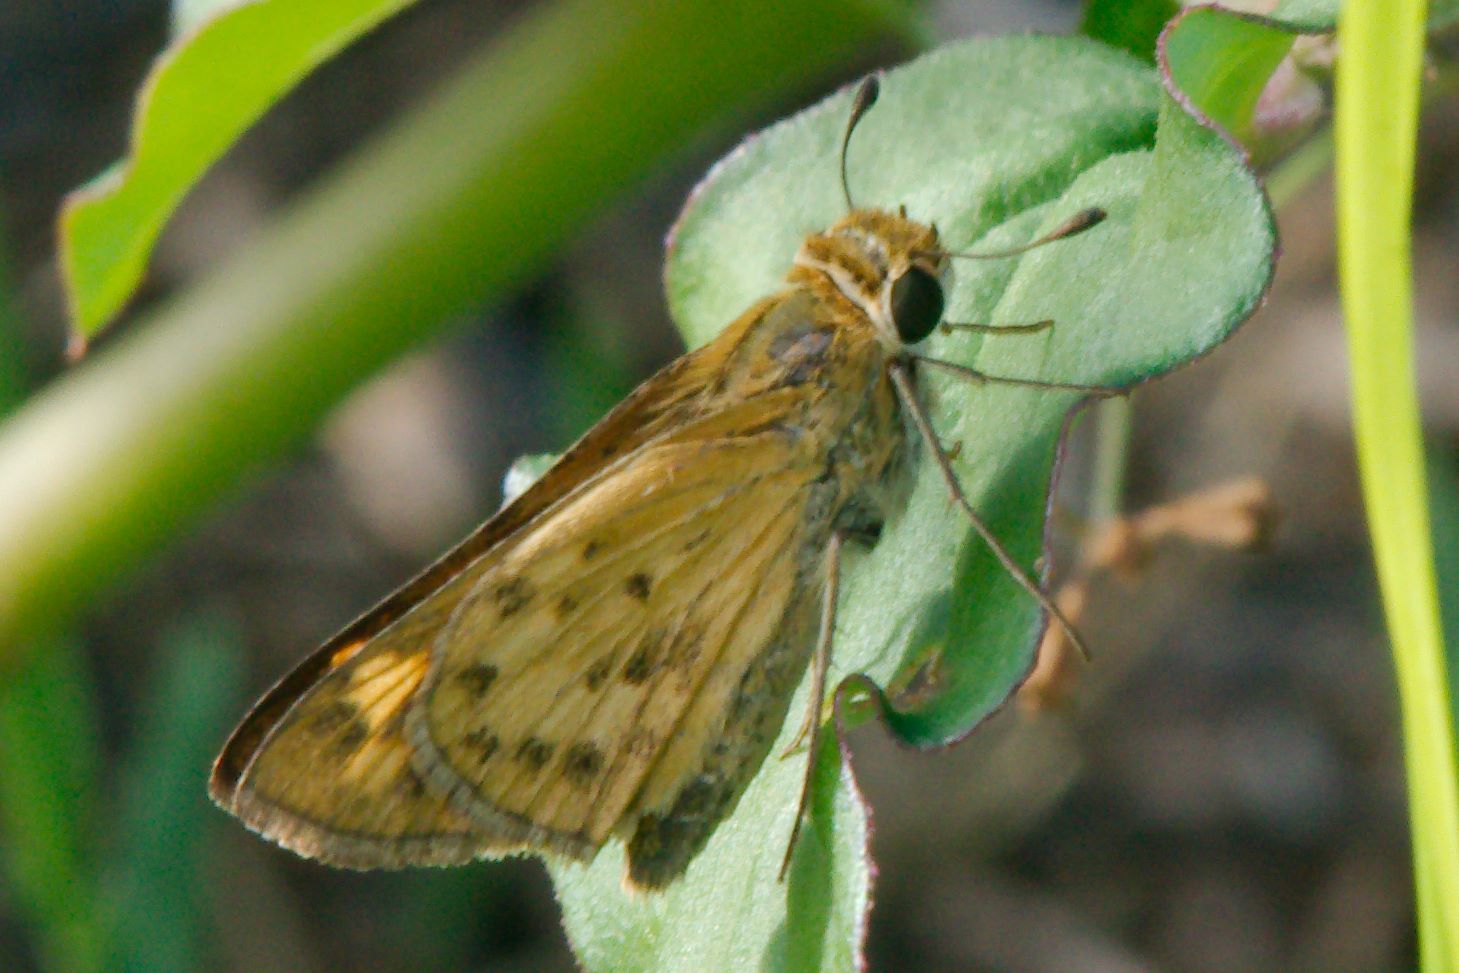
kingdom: Animalia
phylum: Arthropoda
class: Insecta
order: Lepidoptera
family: Hesperiidae
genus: Hylephila
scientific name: Hylephila phyleus
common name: Fiery skipper
